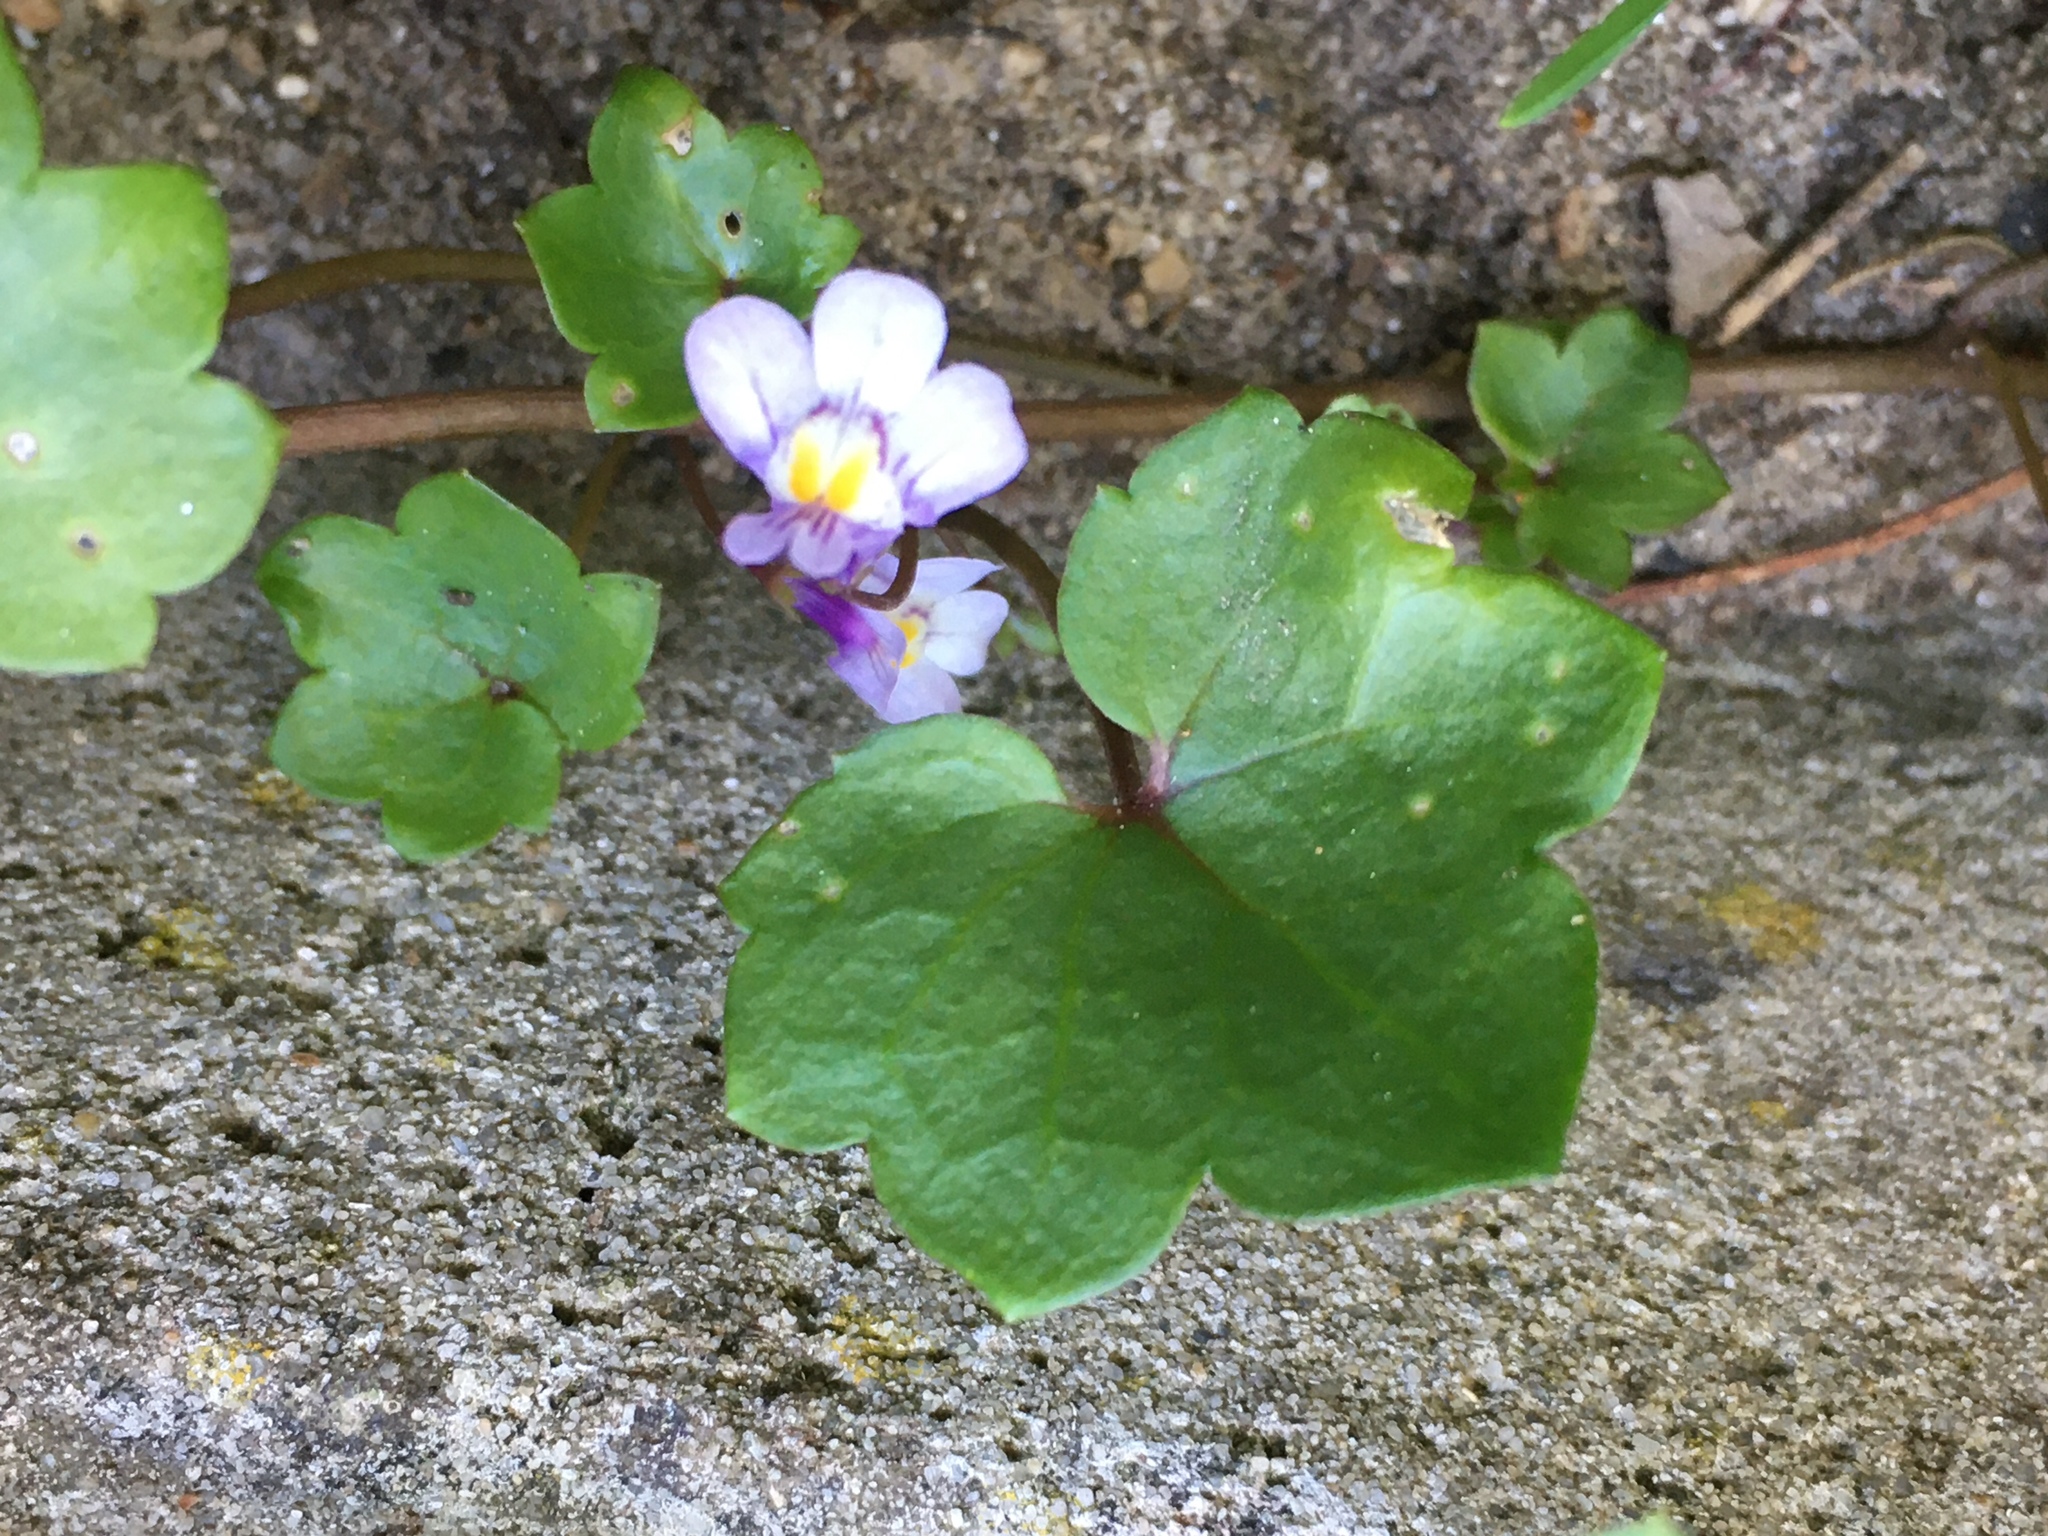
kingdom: Plantae
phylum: Tracheophyta
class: Magnoliopsida
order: Lamiales
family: Plantaginaceae
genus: Cymbalaria
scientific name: Cymbalaria muralis
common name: Ivy-leaved toadflax
